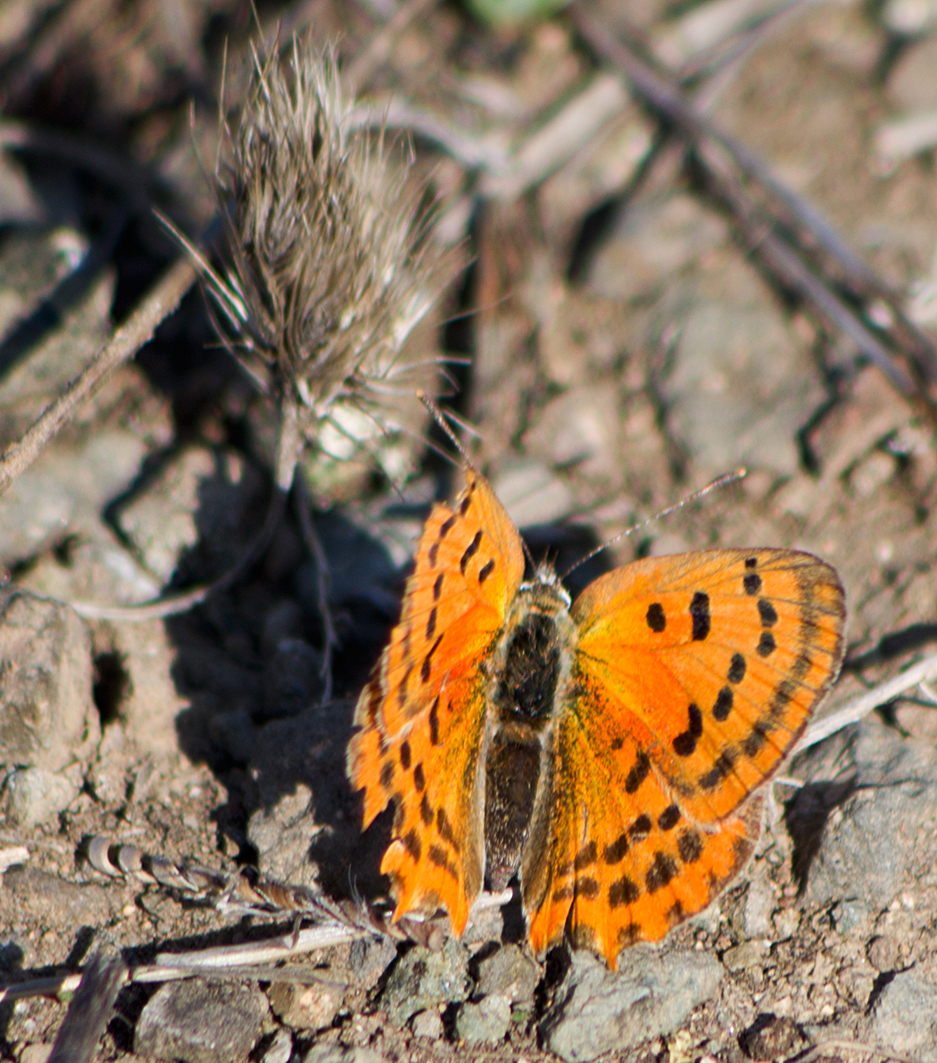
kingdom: Animalia
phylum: Arthropoda
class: Insecta
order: Lepidoptera
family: Lycaenidae
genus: Polyommatus
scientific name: Polyommatus ottomanus
